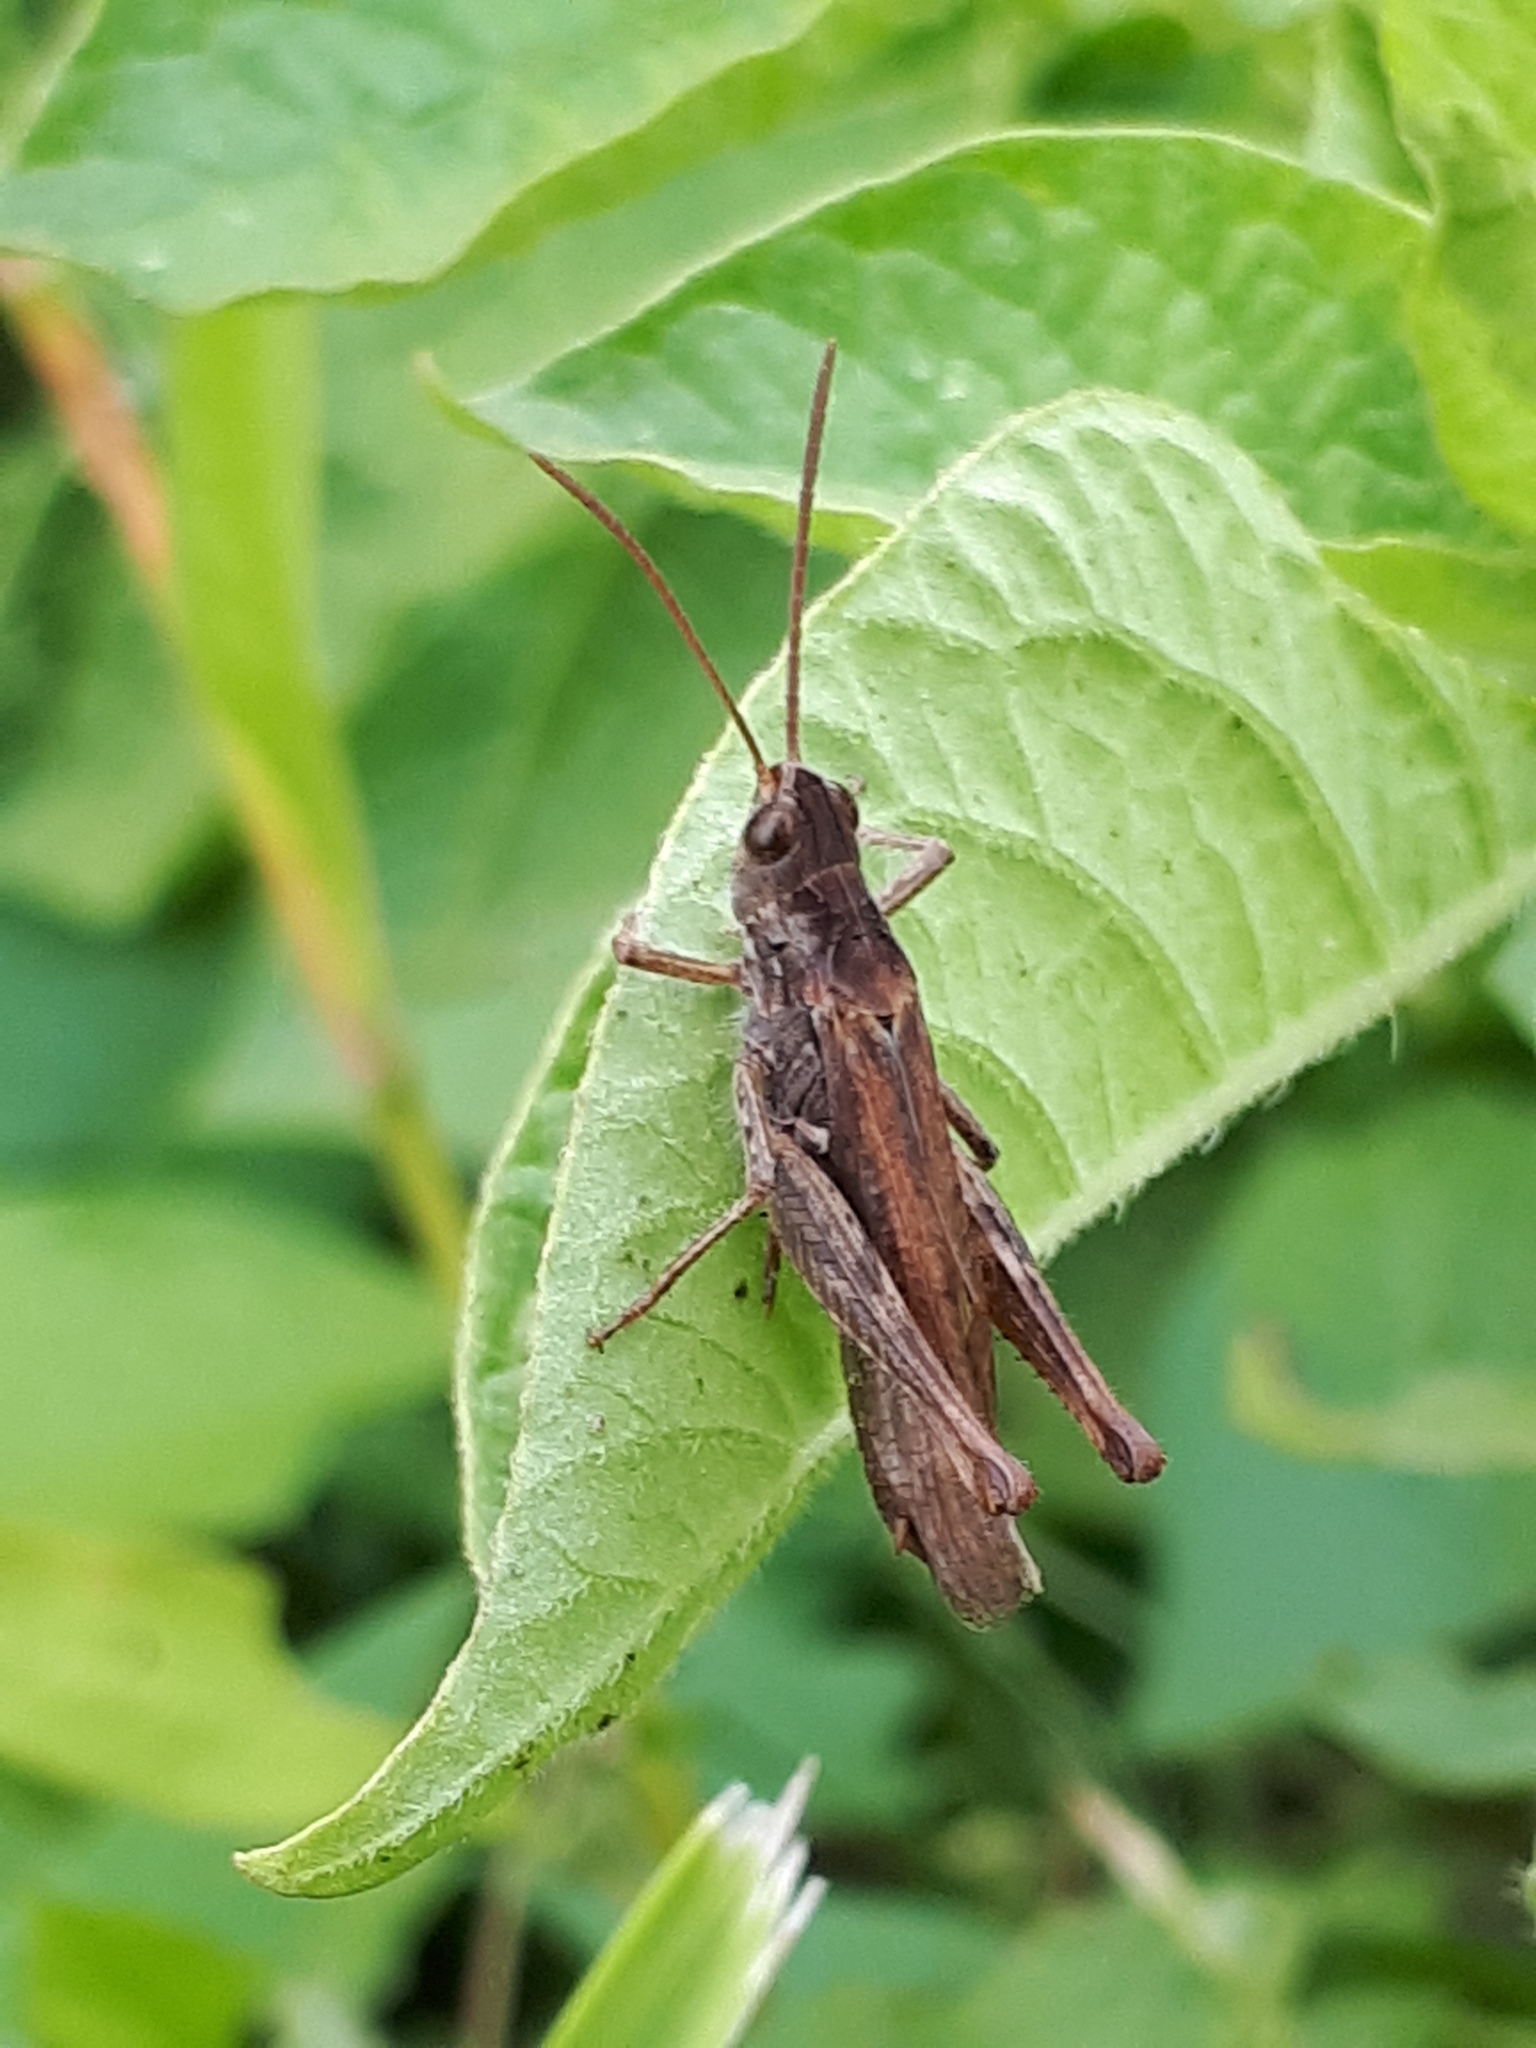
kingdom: Animalia
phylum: Arthropoda
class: Insecta
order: Orthoptera
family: Acrididae
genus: Chorthippus
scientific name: Chorthippus brunneus
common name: Field grasshopper
